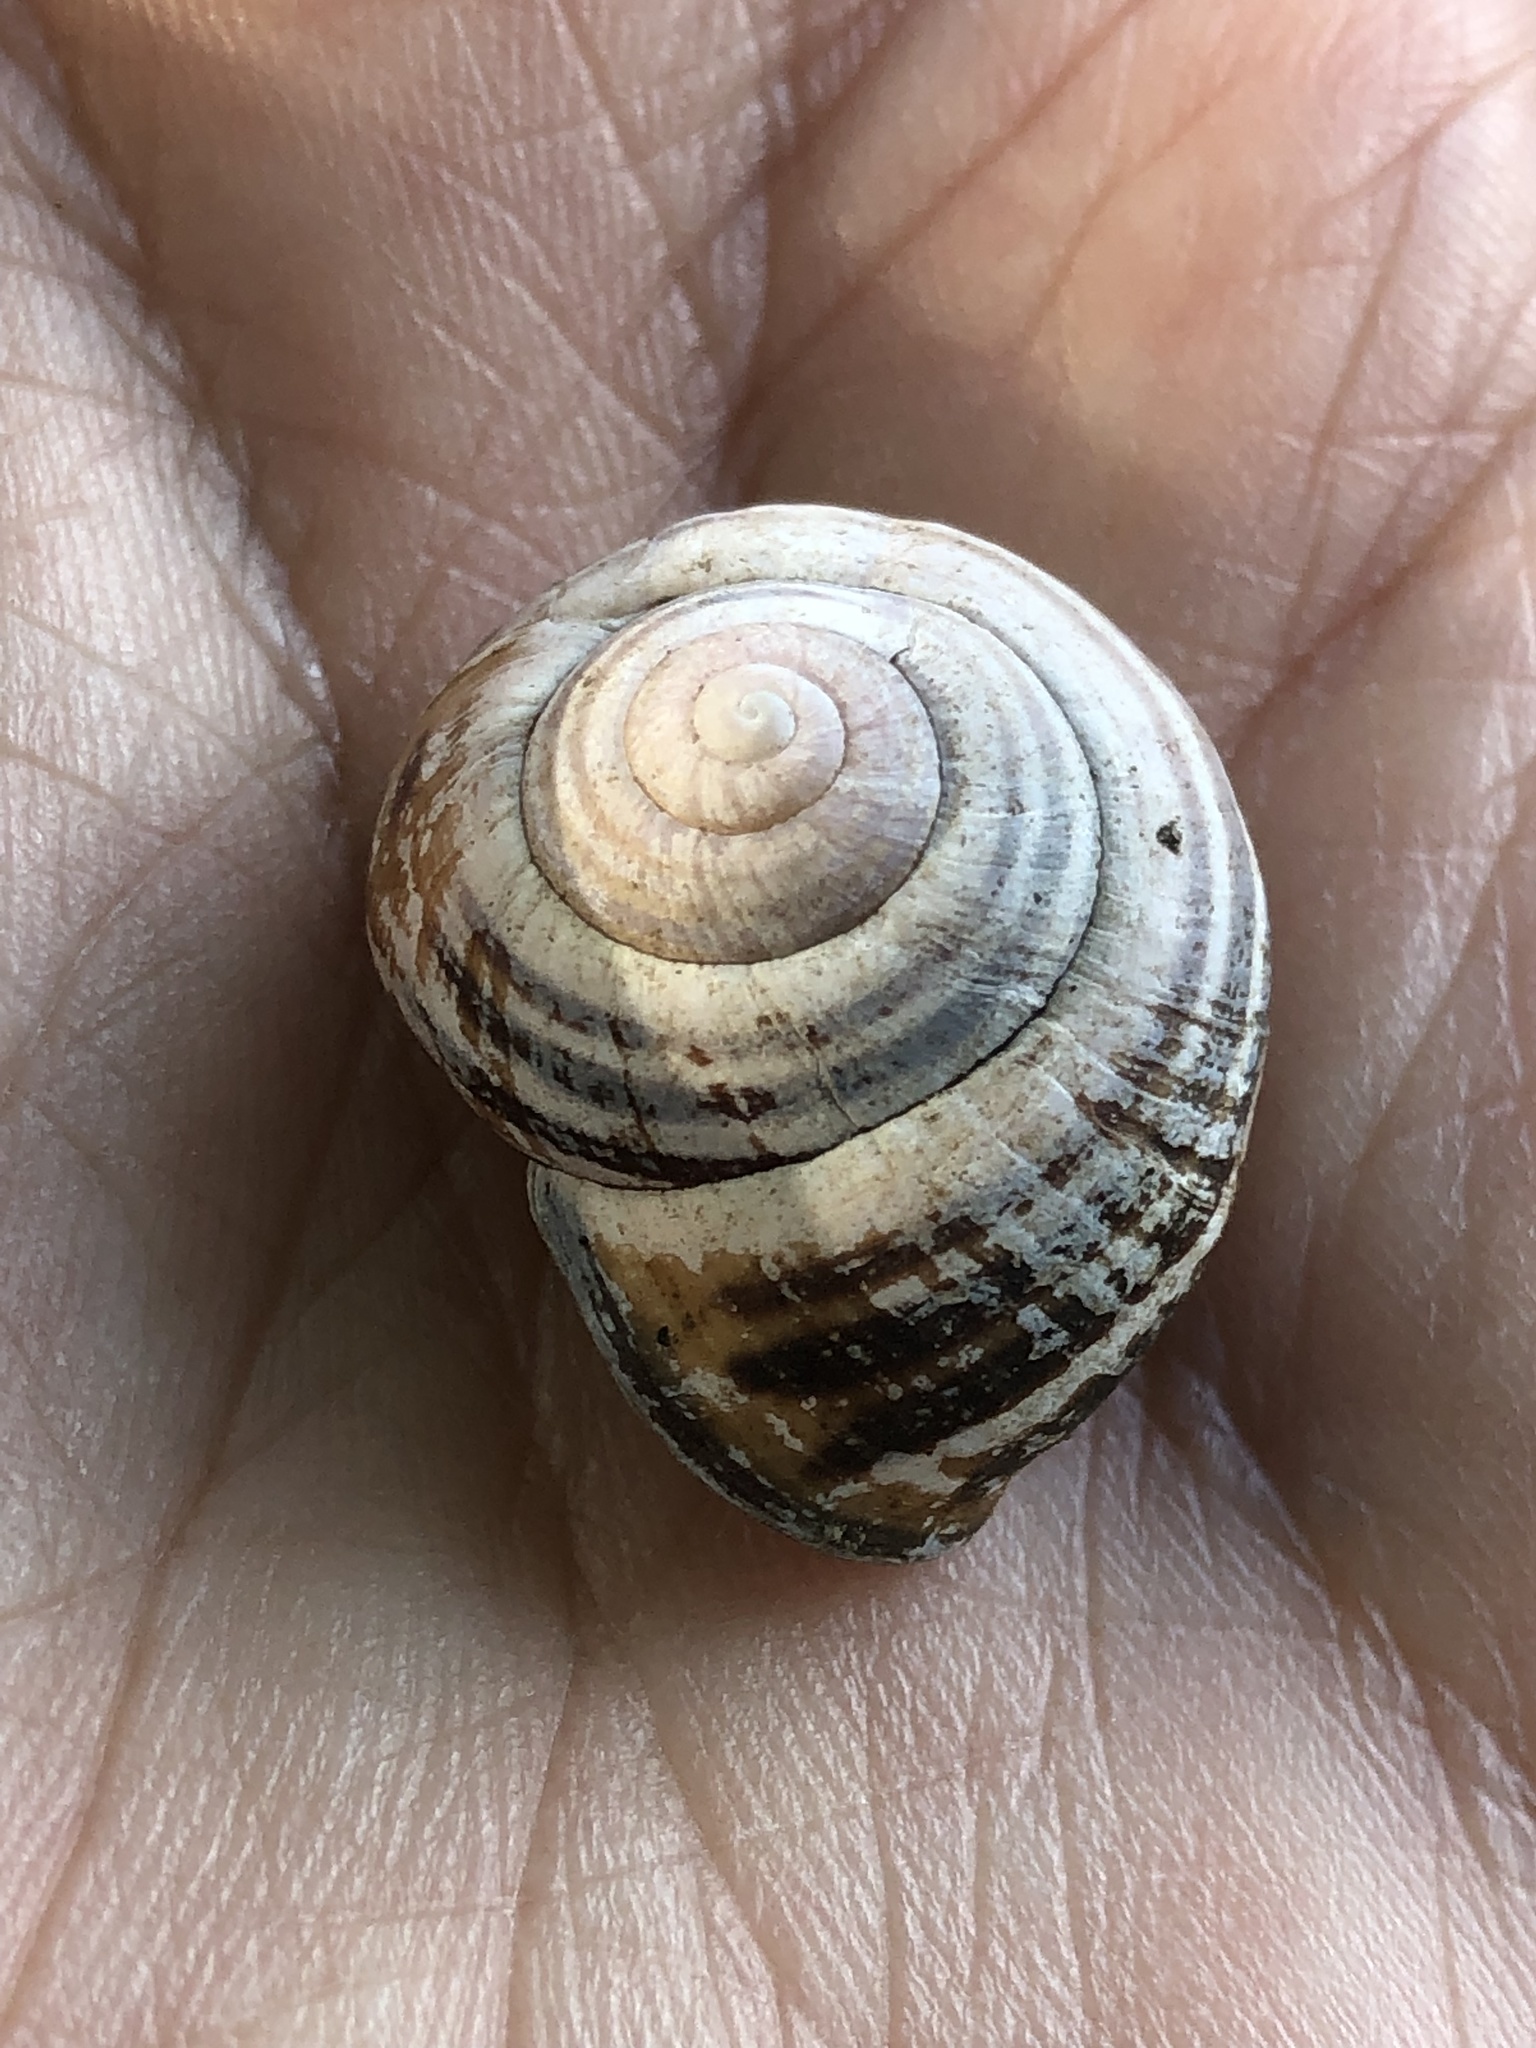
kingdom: Animalia
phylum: Mollusca
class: Gastropoda
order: Stylommatophora
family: Helicidae
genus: Cepaea
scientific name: Cepaea nemoralis
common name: Grovesnail
